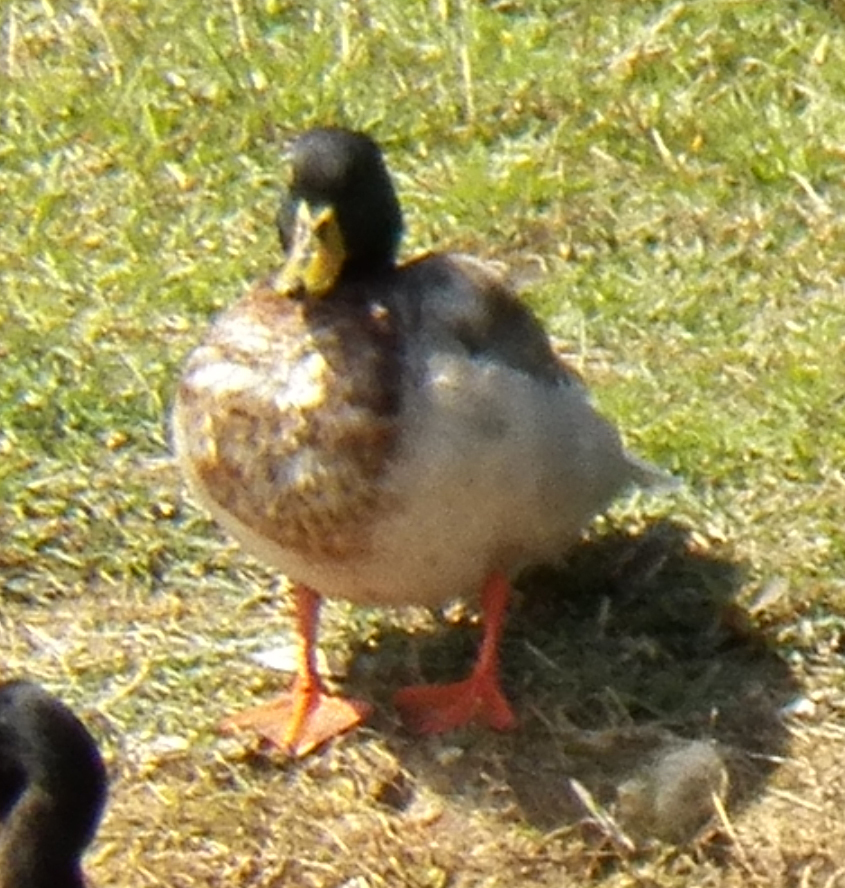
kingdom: Animalia
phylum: Chordata
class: Aves
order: Anseriformes
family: Anatidae
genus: Anas
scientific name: Anas platyrhynchos
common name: Mallard
